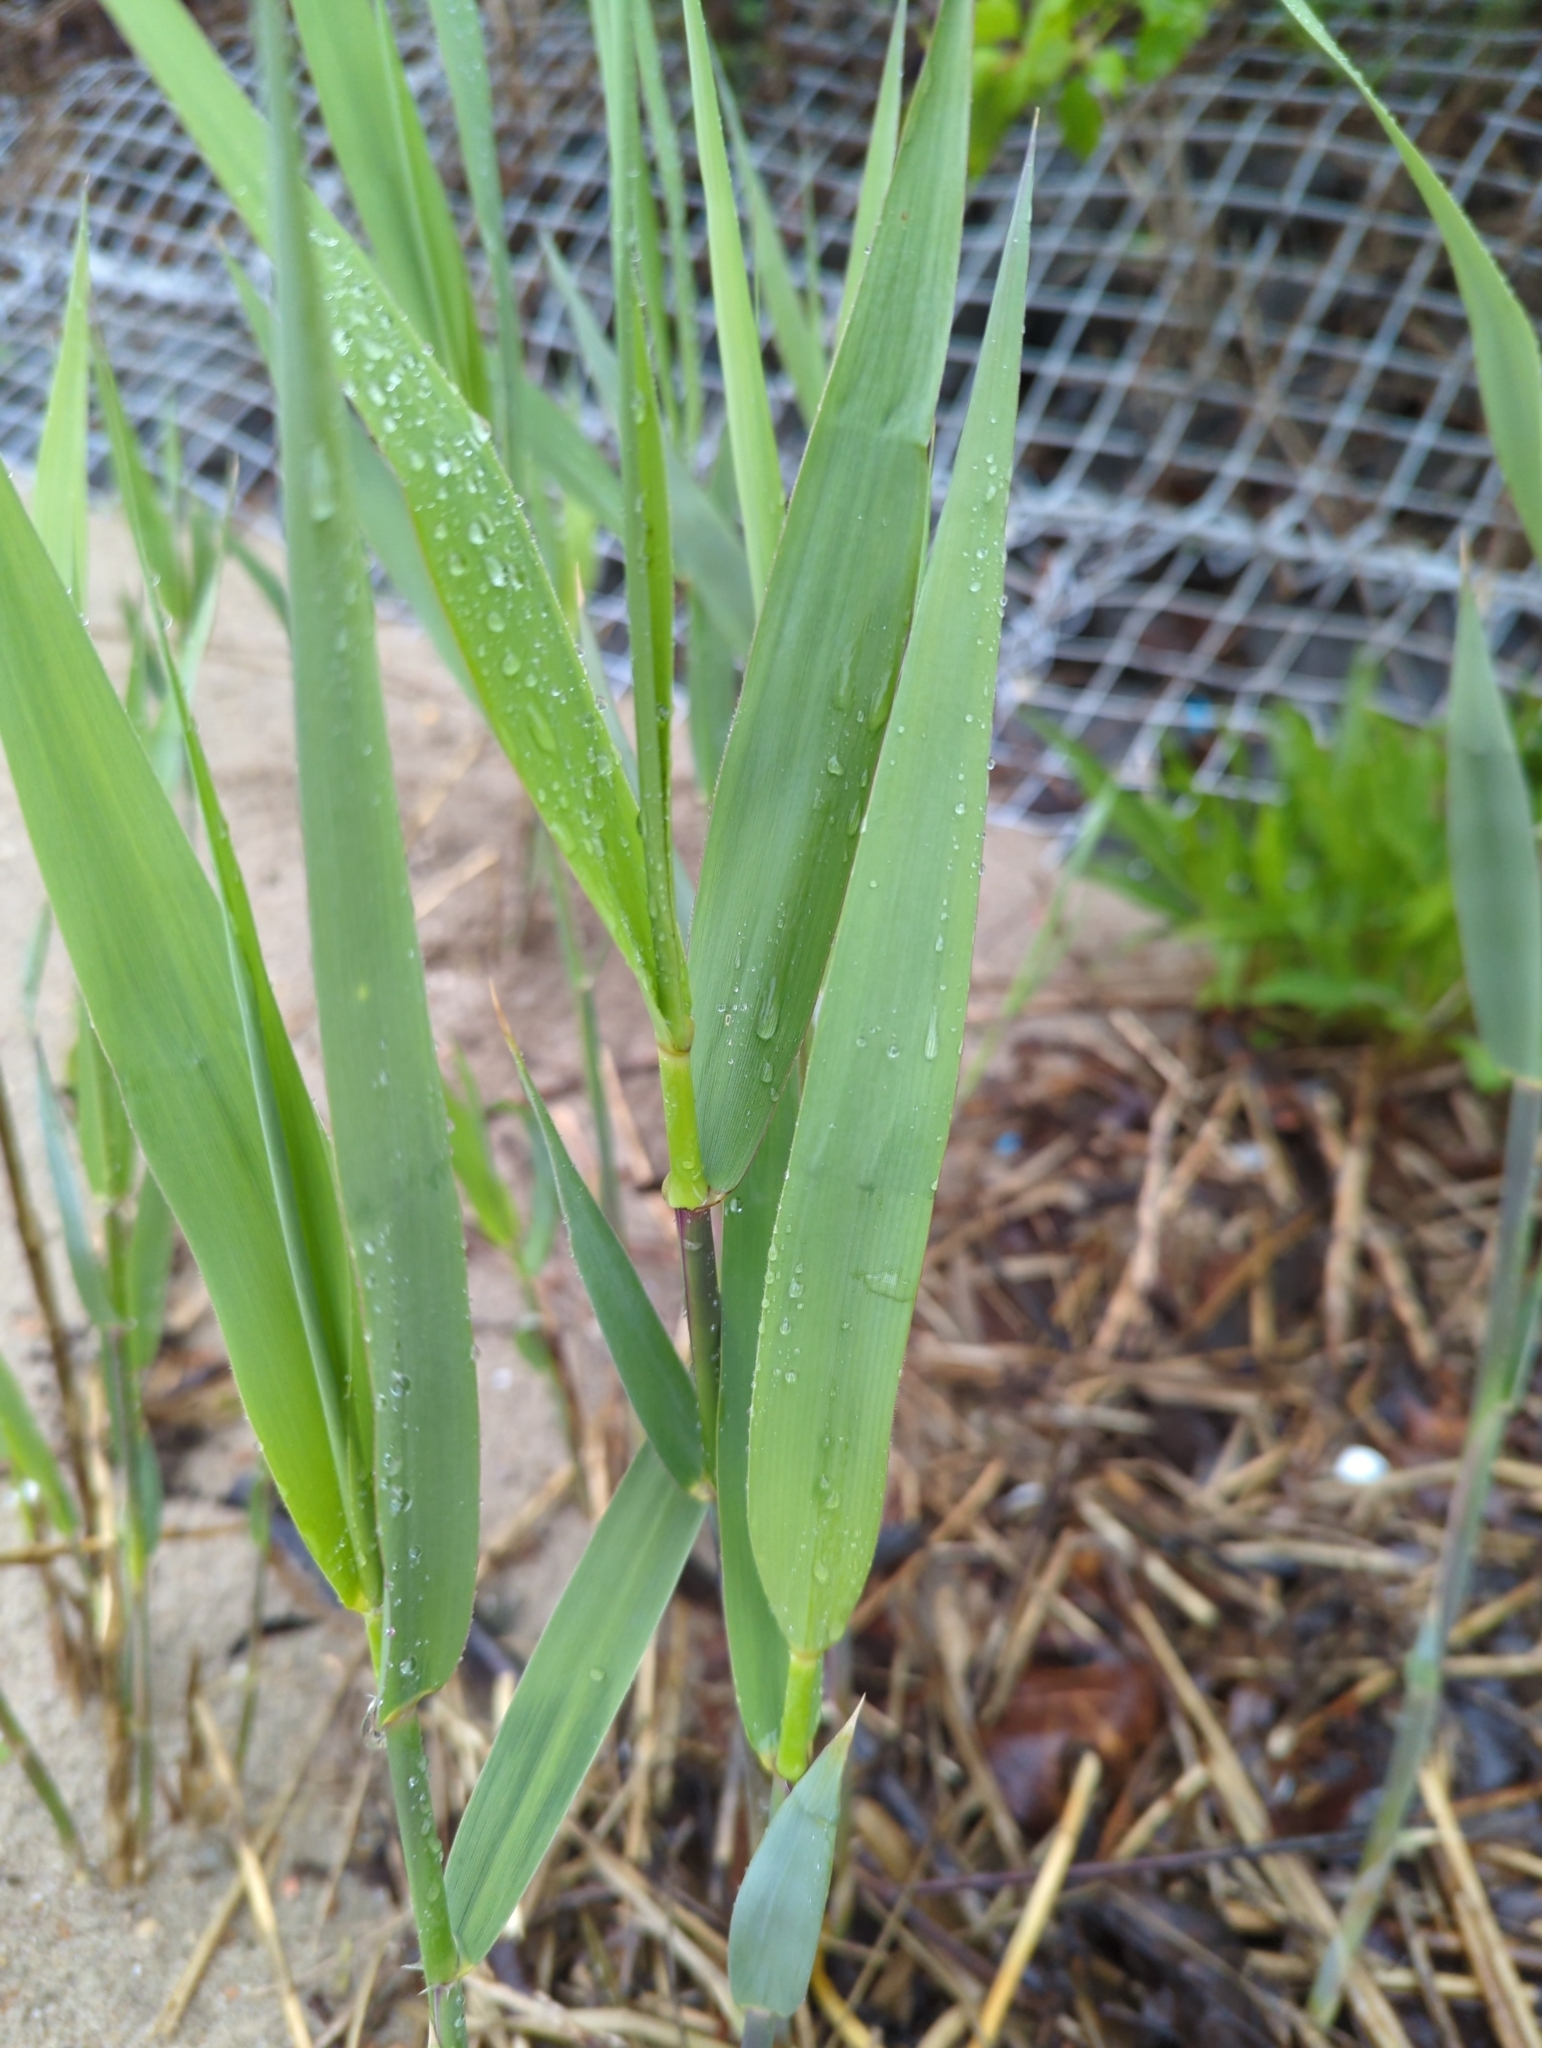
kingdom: Plantae
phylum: Tracheophyta
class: Liliopsida
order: Poales
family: Poaceae
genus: Phragmites
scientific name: Phragmites australis
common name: Common reed
